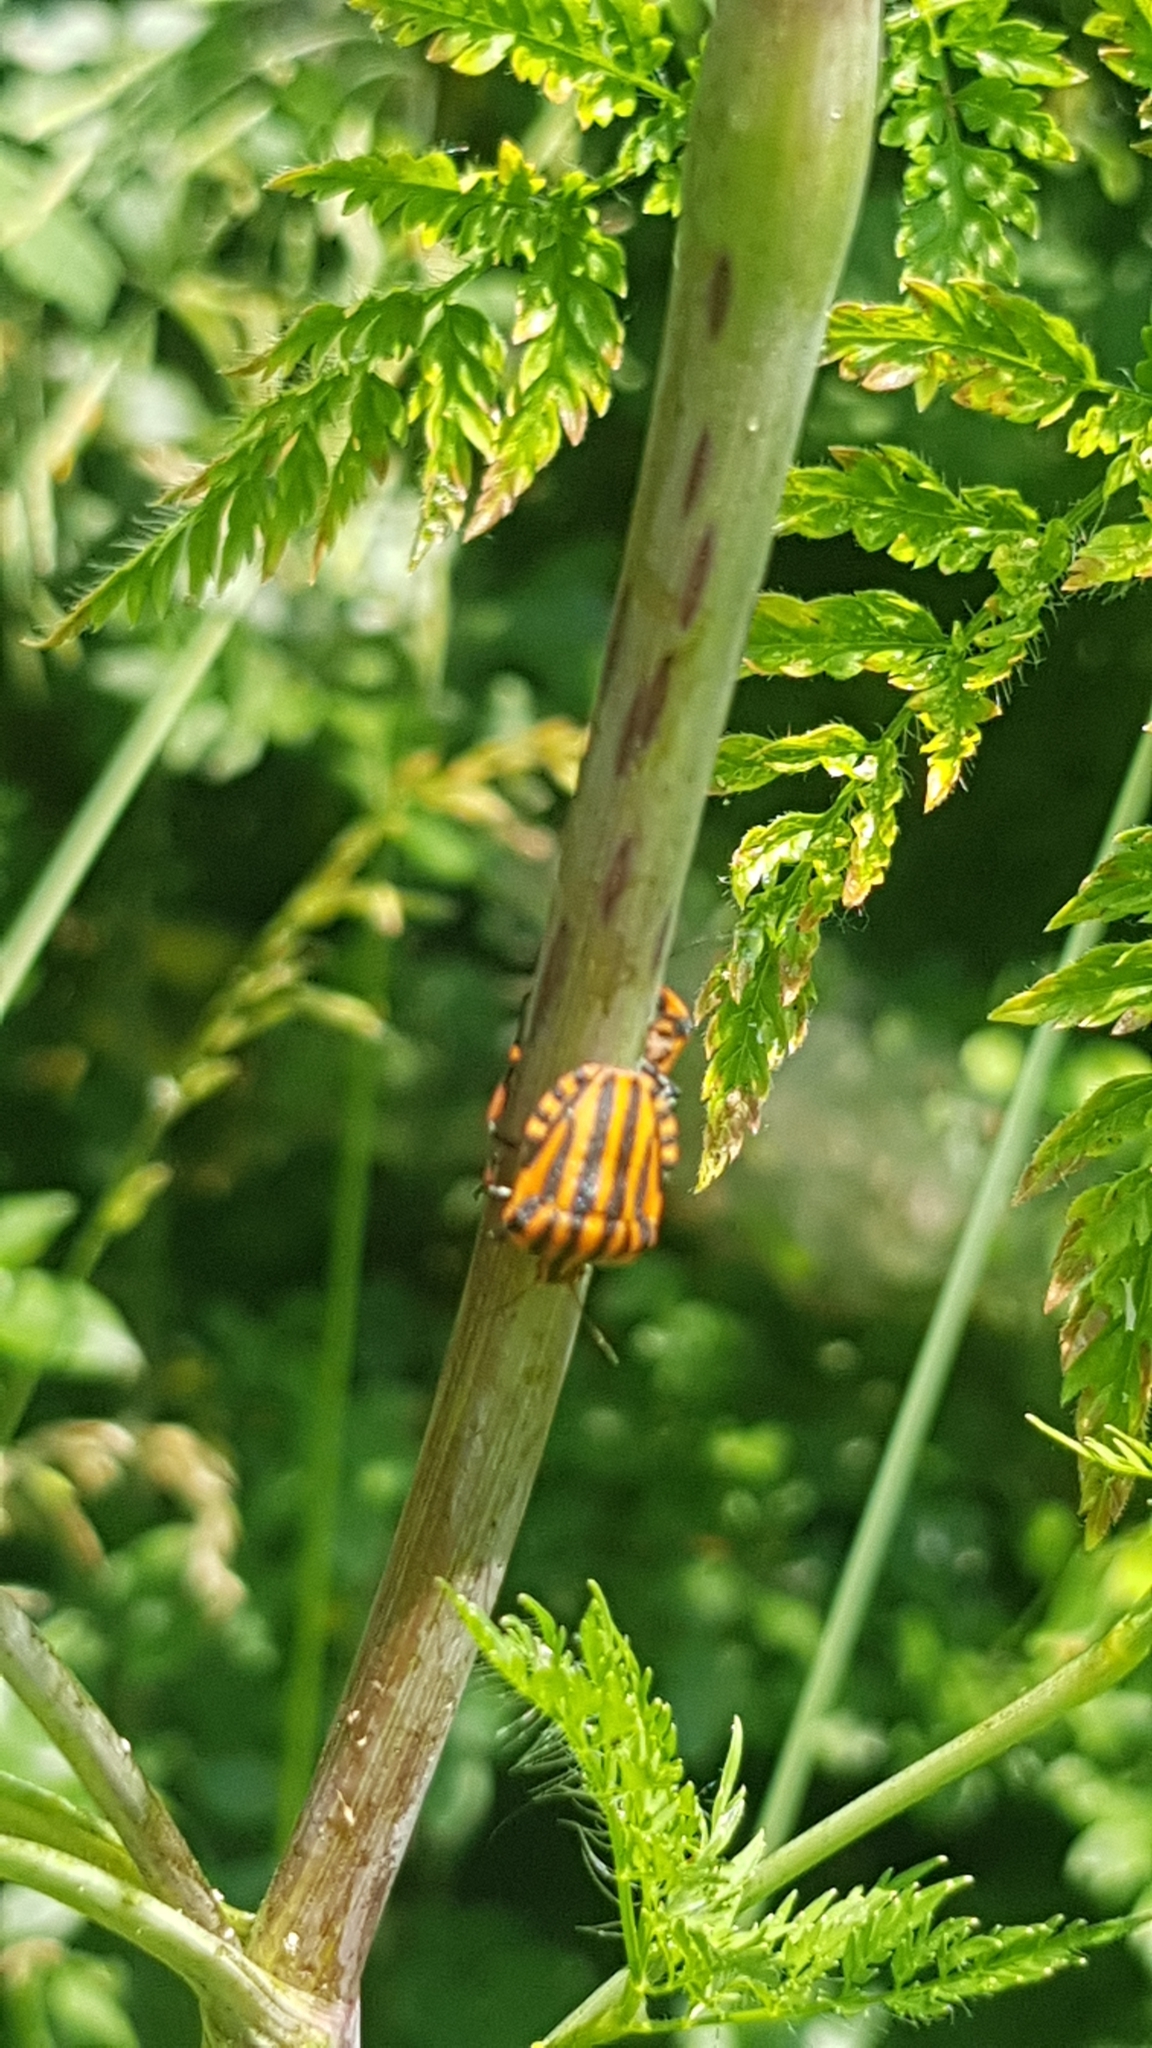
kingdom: Animalia
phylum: Arthropoda
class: Insecta
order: Hemiptera
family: Pentatomidae
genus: Graphosoma
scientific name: Graphosoma italicum
